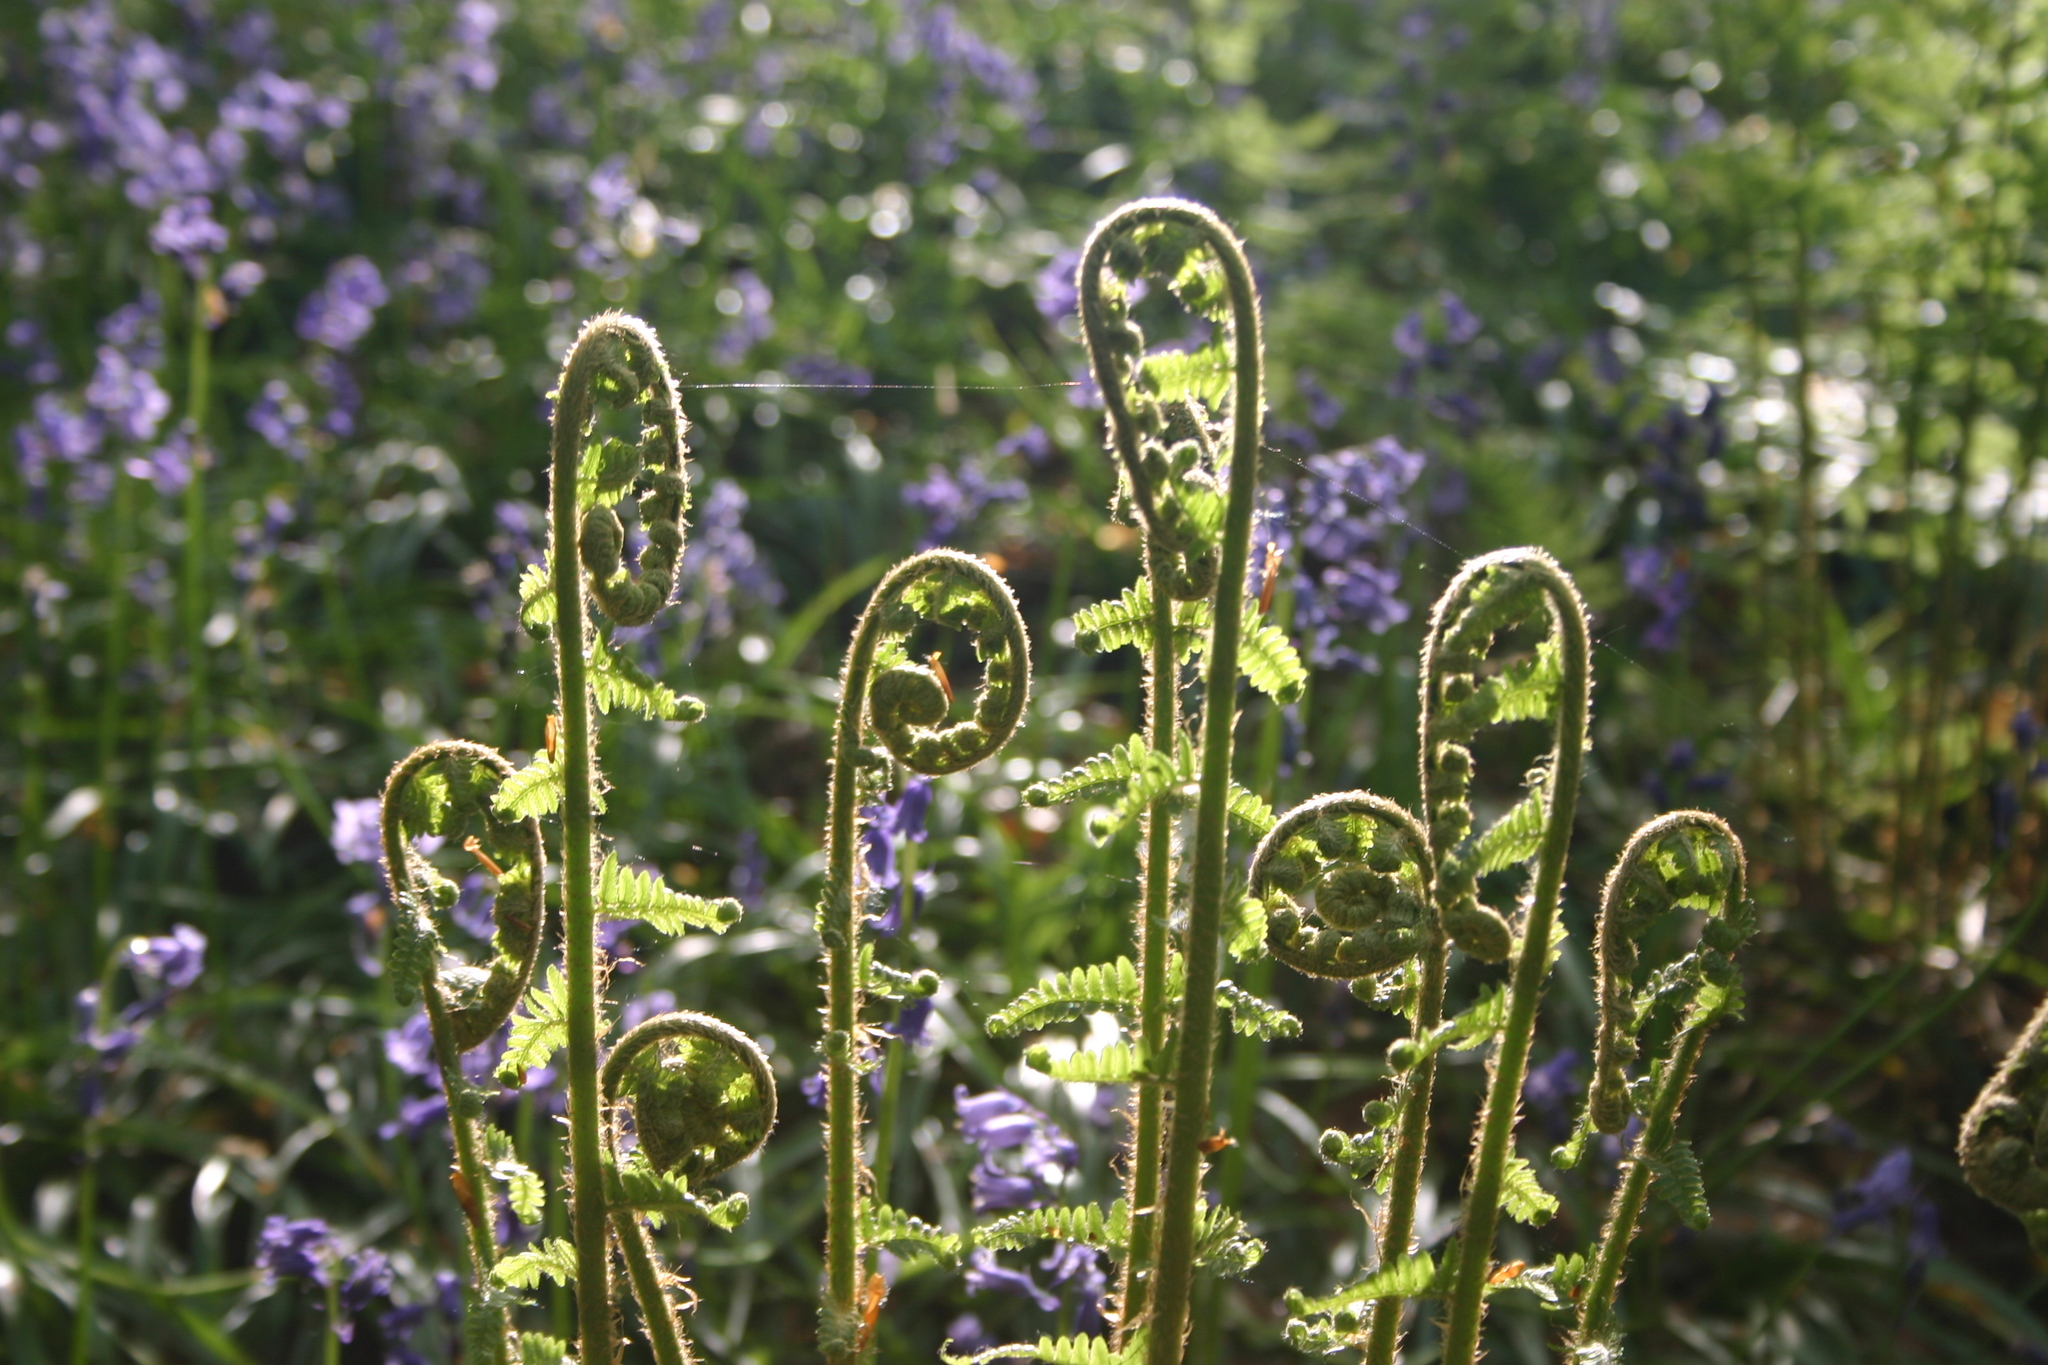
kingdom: Plantae
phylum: Tracheophyta
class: Polypodiopsida
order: Polypodiales
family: Dryopteridaceae
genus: Dryopteris
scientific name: Dryopteris filix-mas
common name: Male fern
